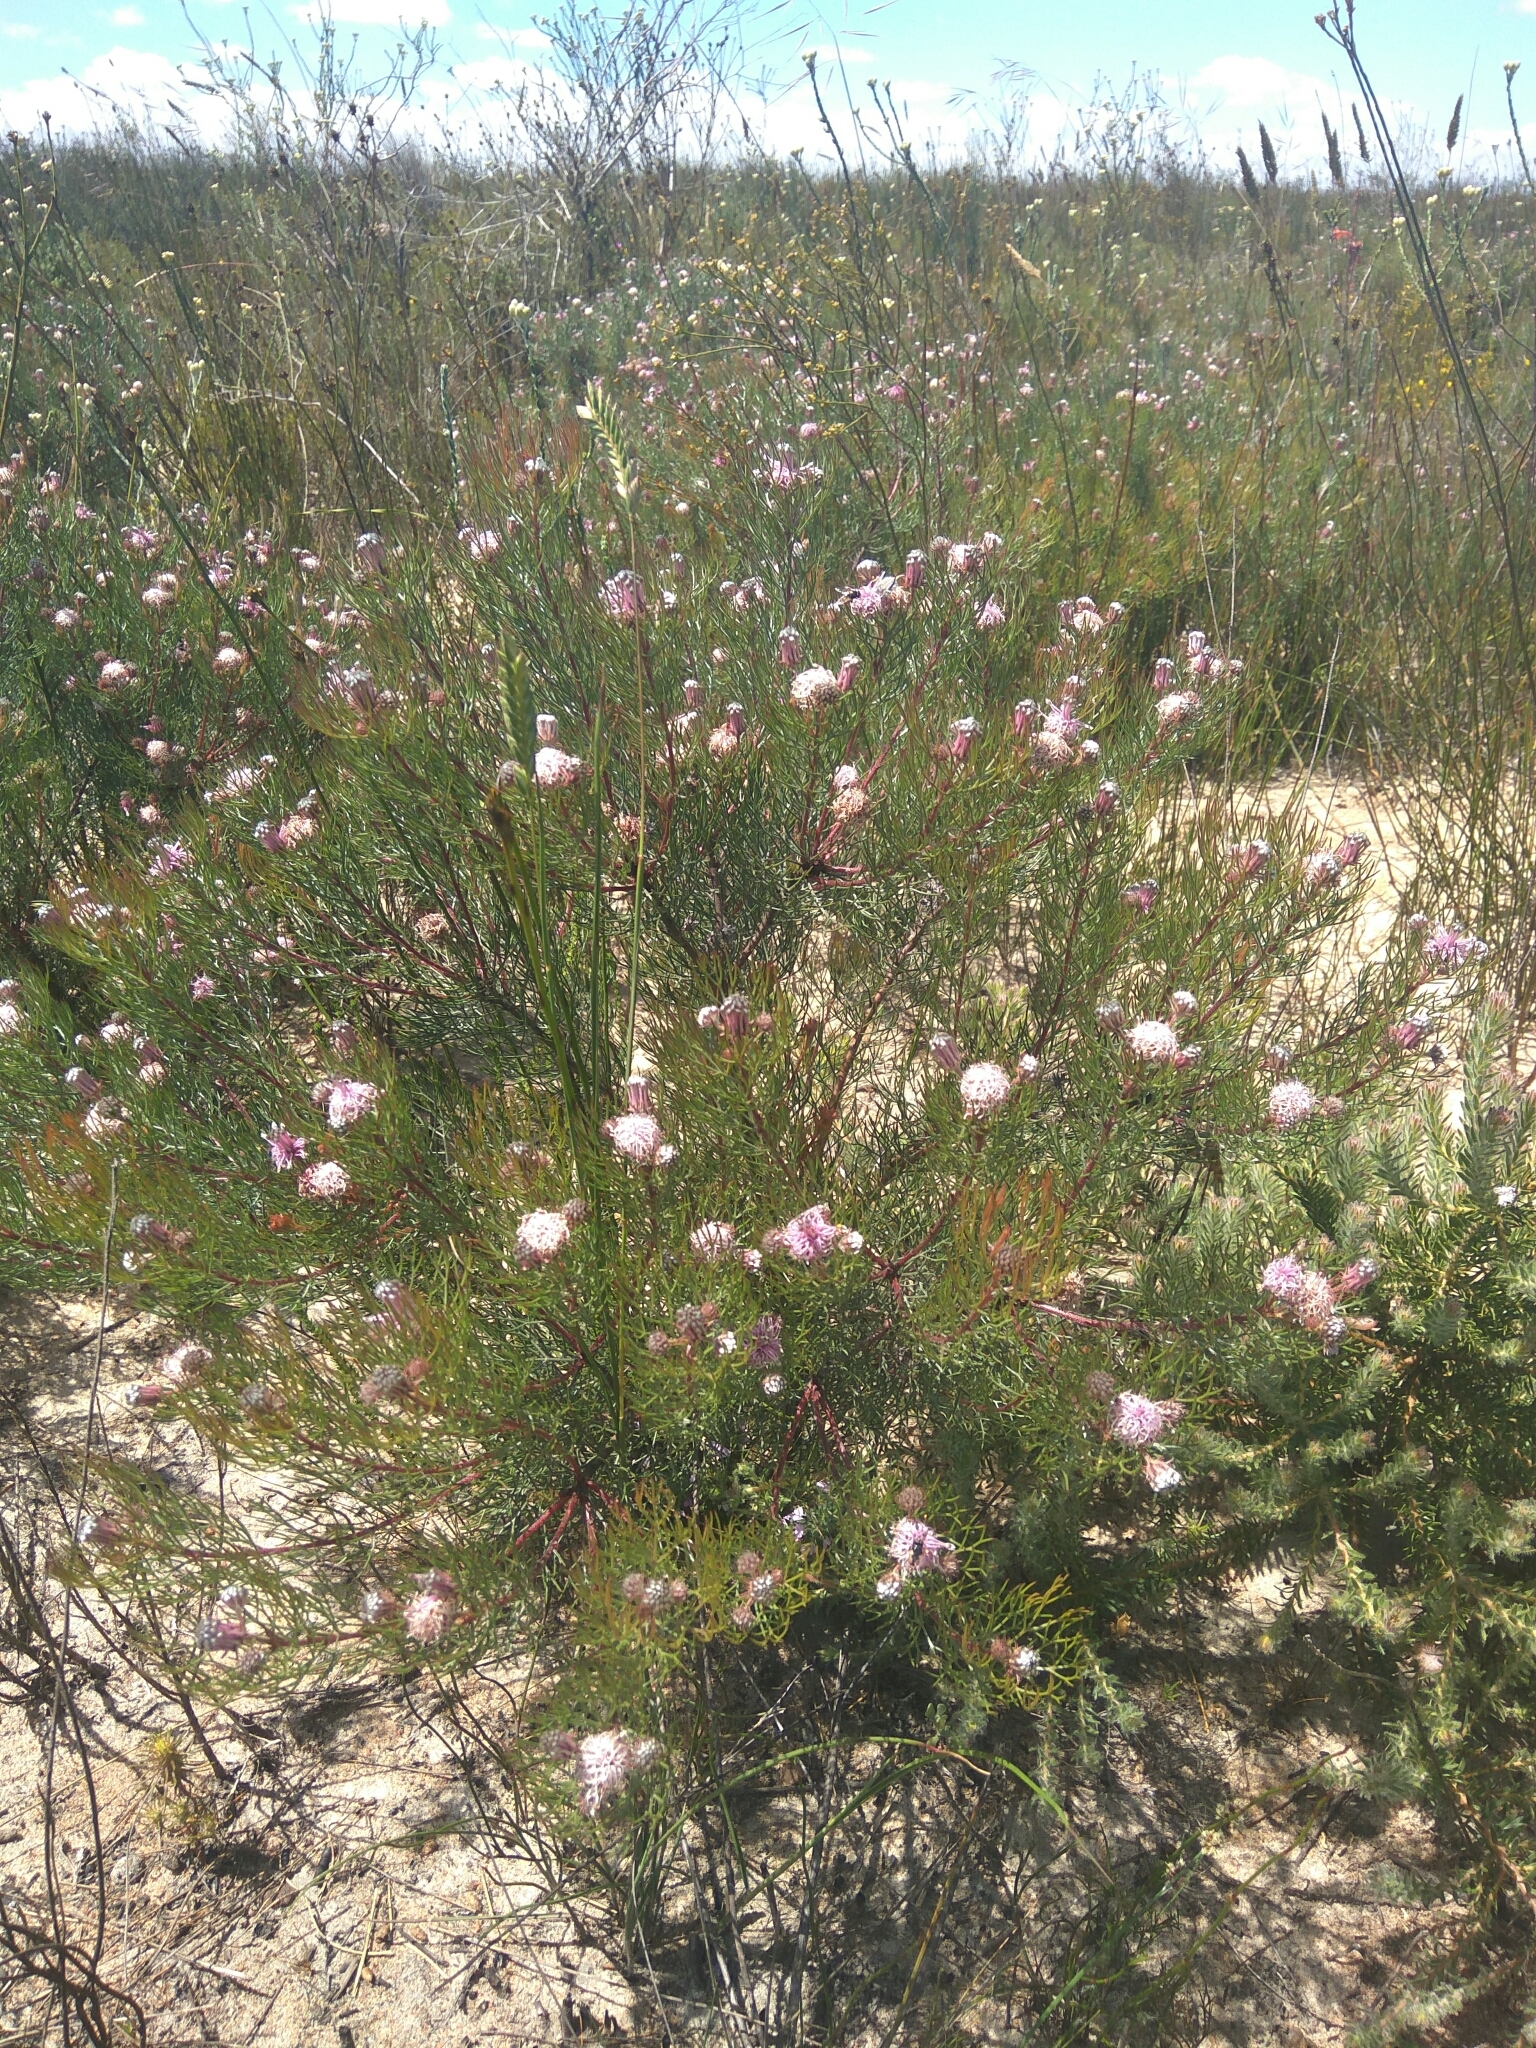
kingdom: Plantae
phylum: Tracheophyta
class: Magnoliopsida
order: Proteales
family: Proteaceae
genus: Serruria
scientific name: Serruria fasciflora
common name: Common pin spiderhead
